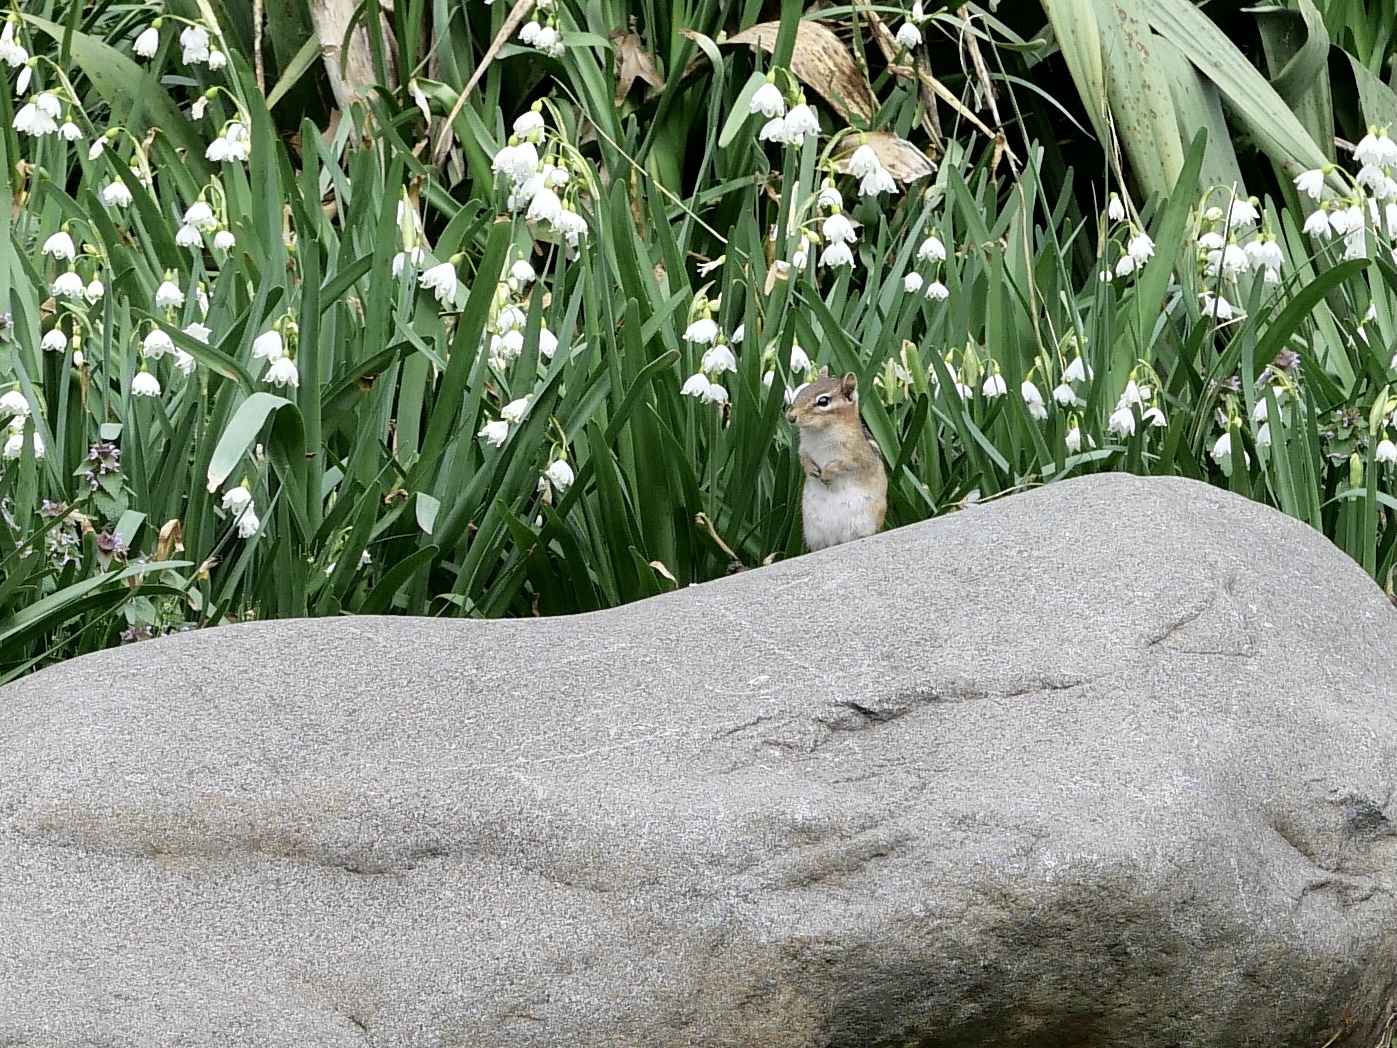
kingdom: Animalia
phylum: Chordata
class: Mammalia
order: Rodentia
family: Sciuridae
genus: Tamias
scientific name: Tamias striatus
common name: Eastern chipmunk
